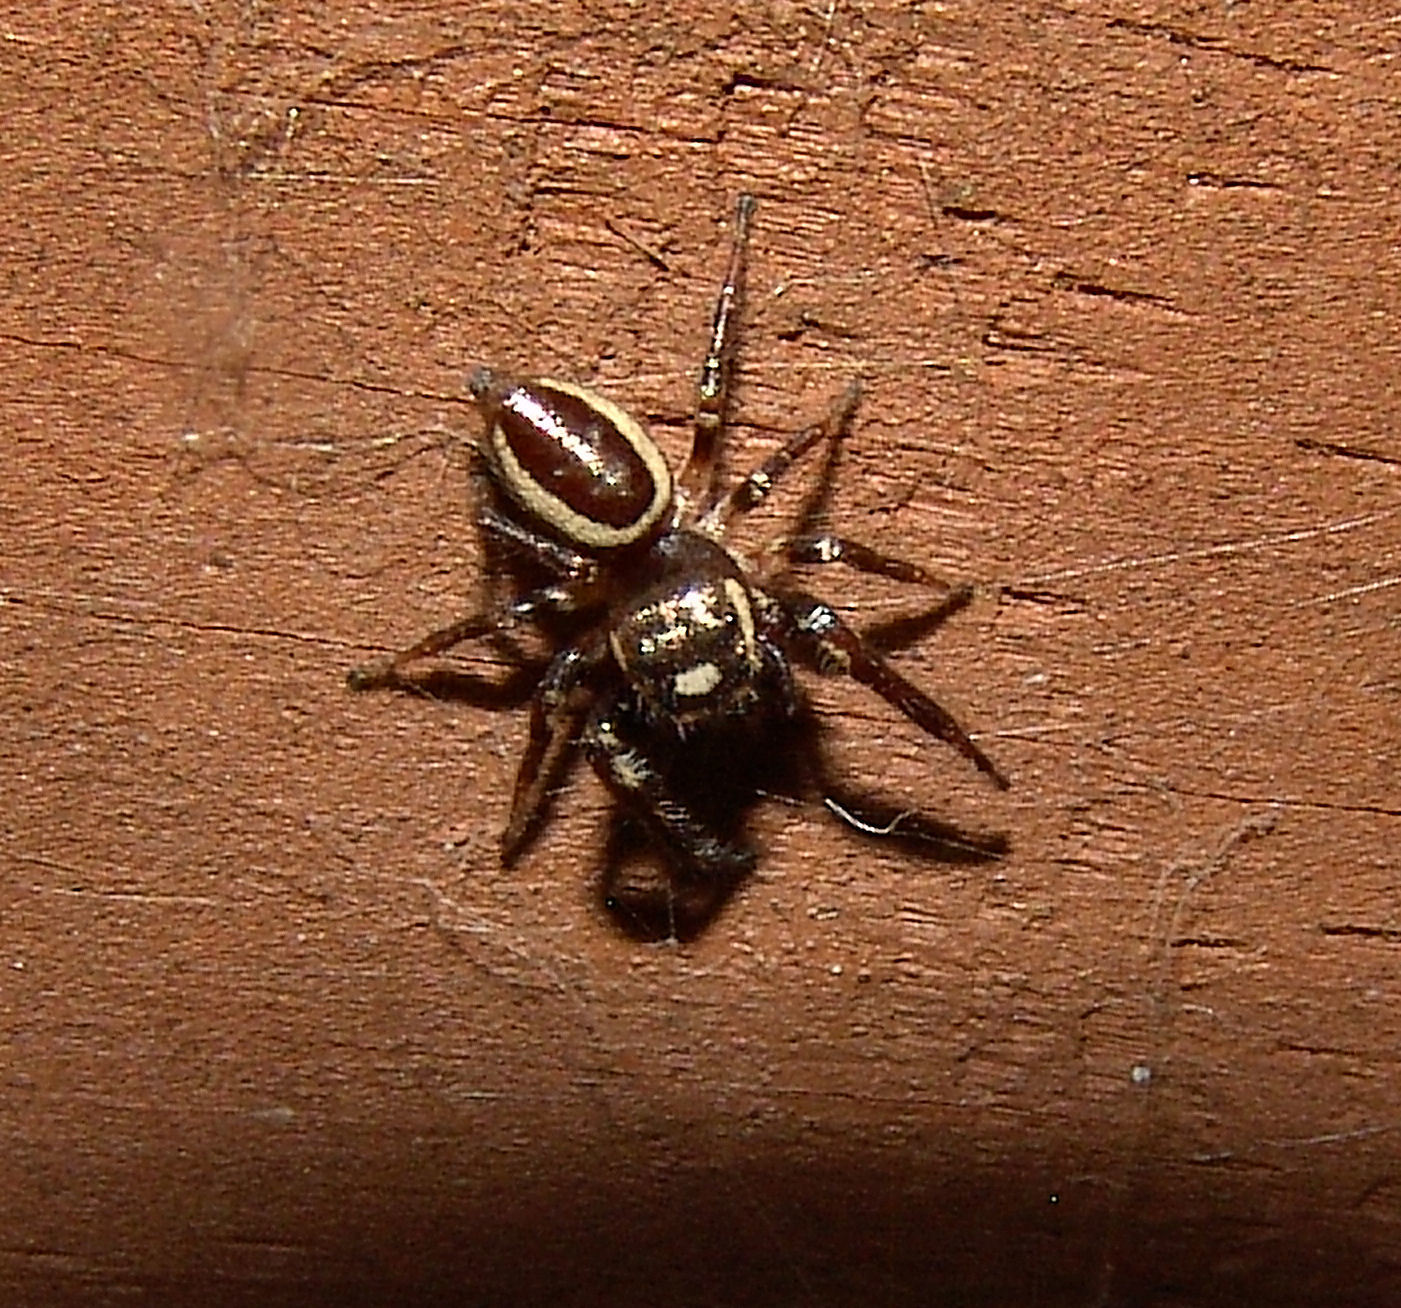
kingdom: Animalia
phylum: Arthropoda
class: Arachnida
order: Araneae
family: Salticidae
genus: Eris
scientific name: Eris militaris
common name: Bronze jumper
